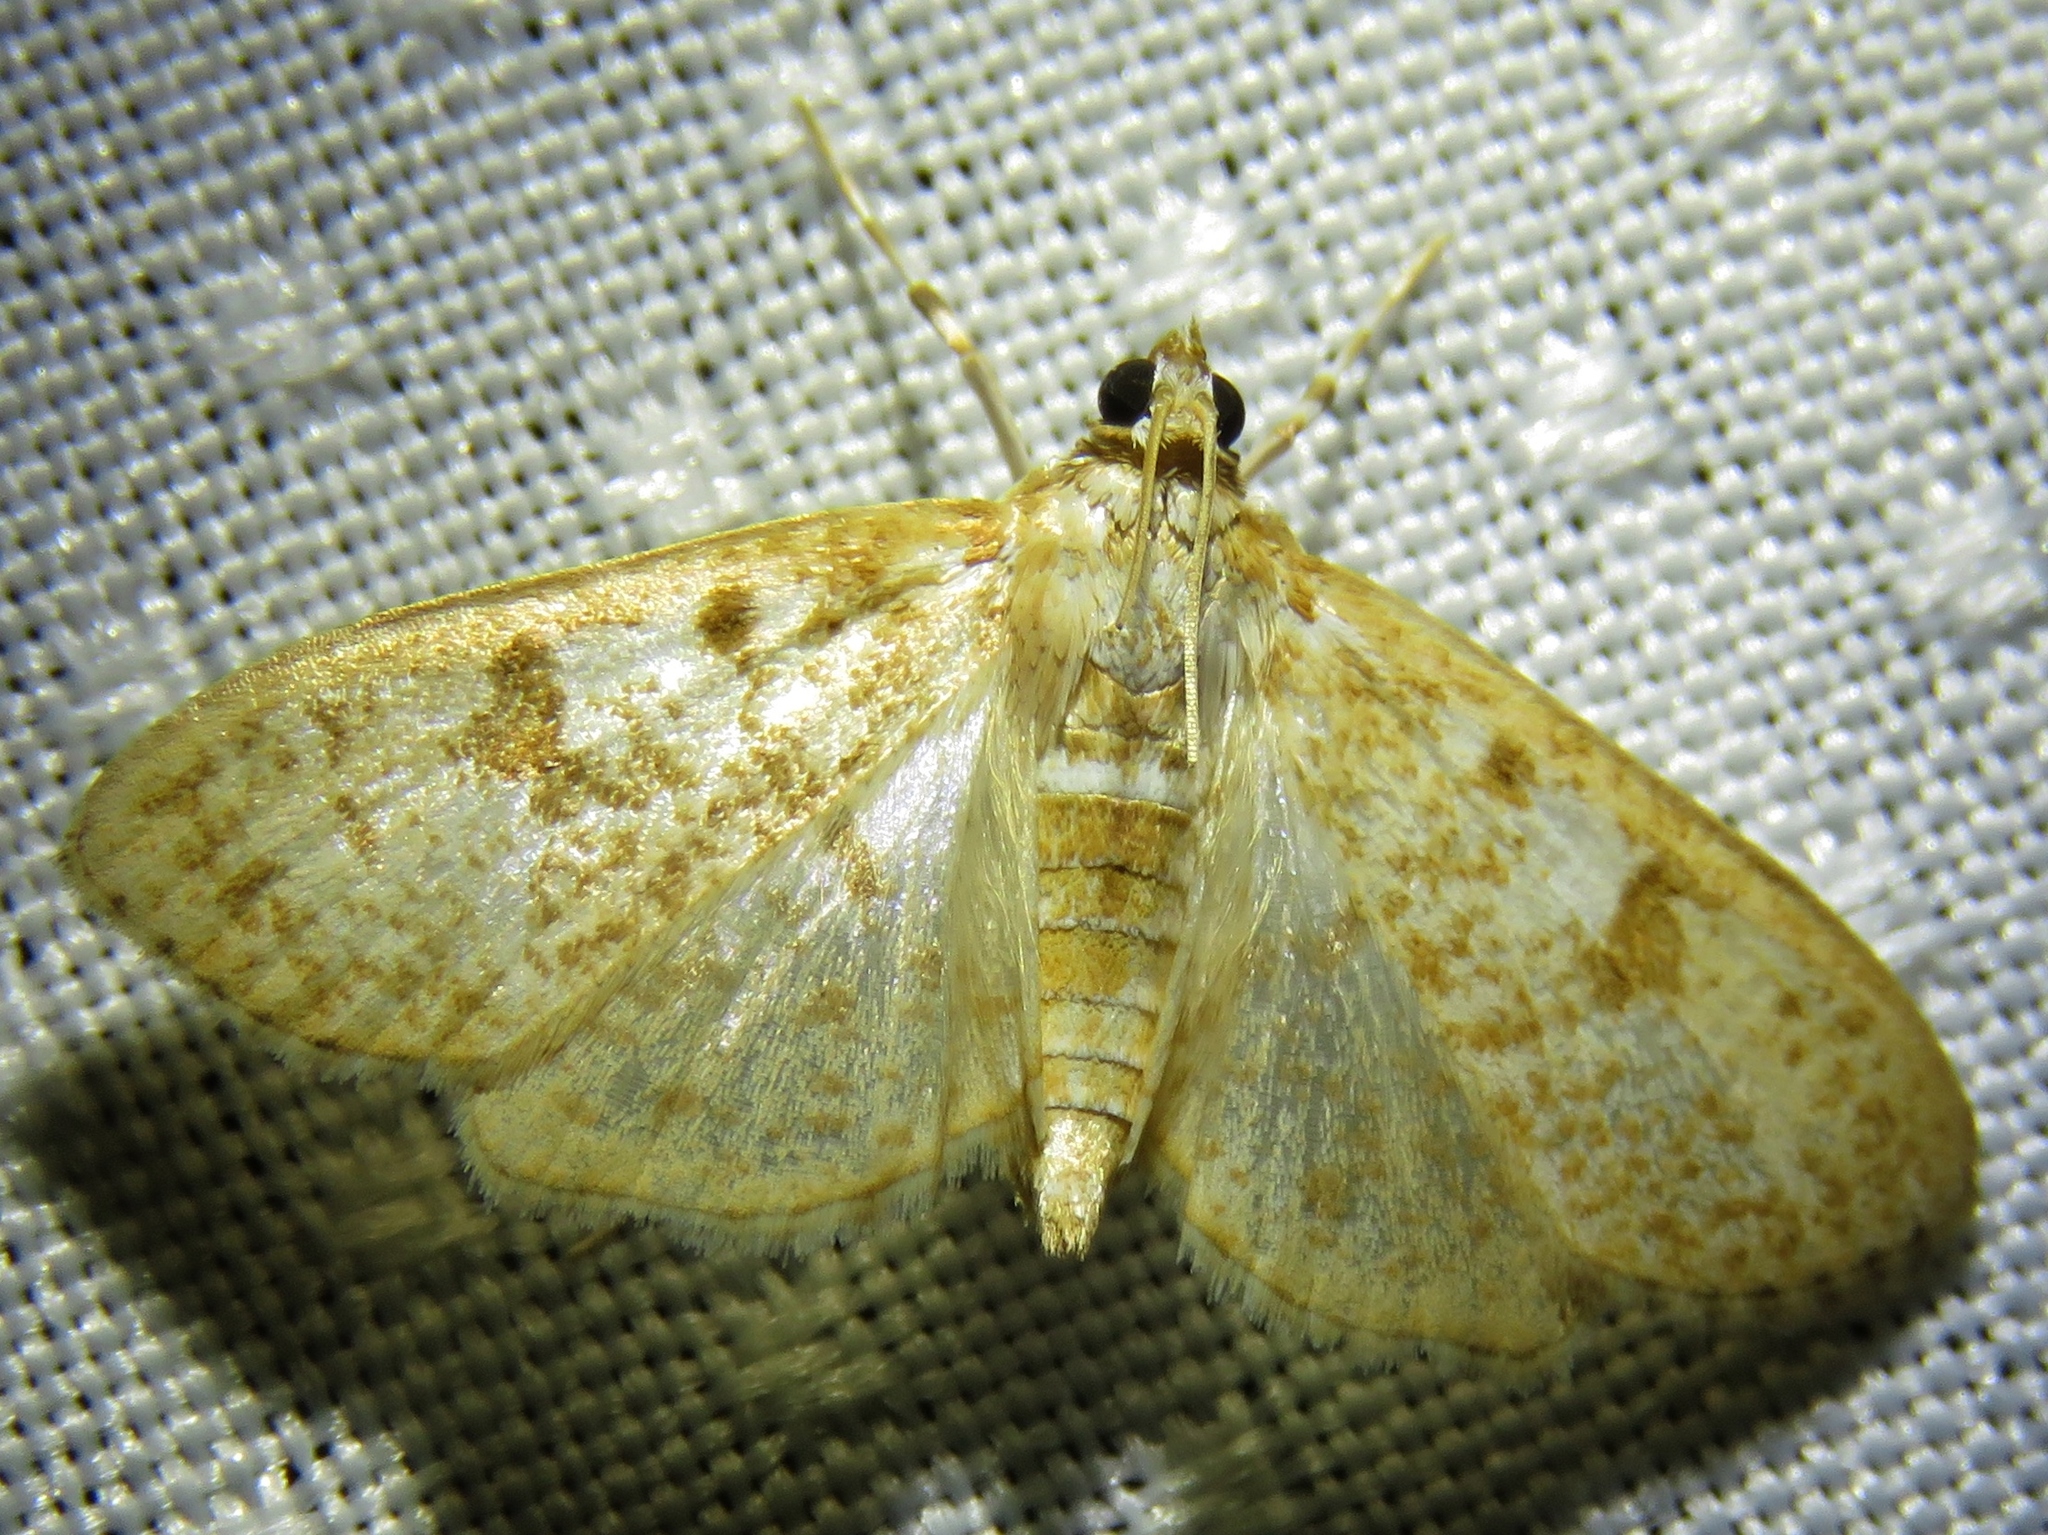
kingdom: Animalia
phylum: Arthropoda
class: Insecta
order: Lepidoptera
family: Crambidae
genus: Palpita
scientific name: Palpita freemanalis
